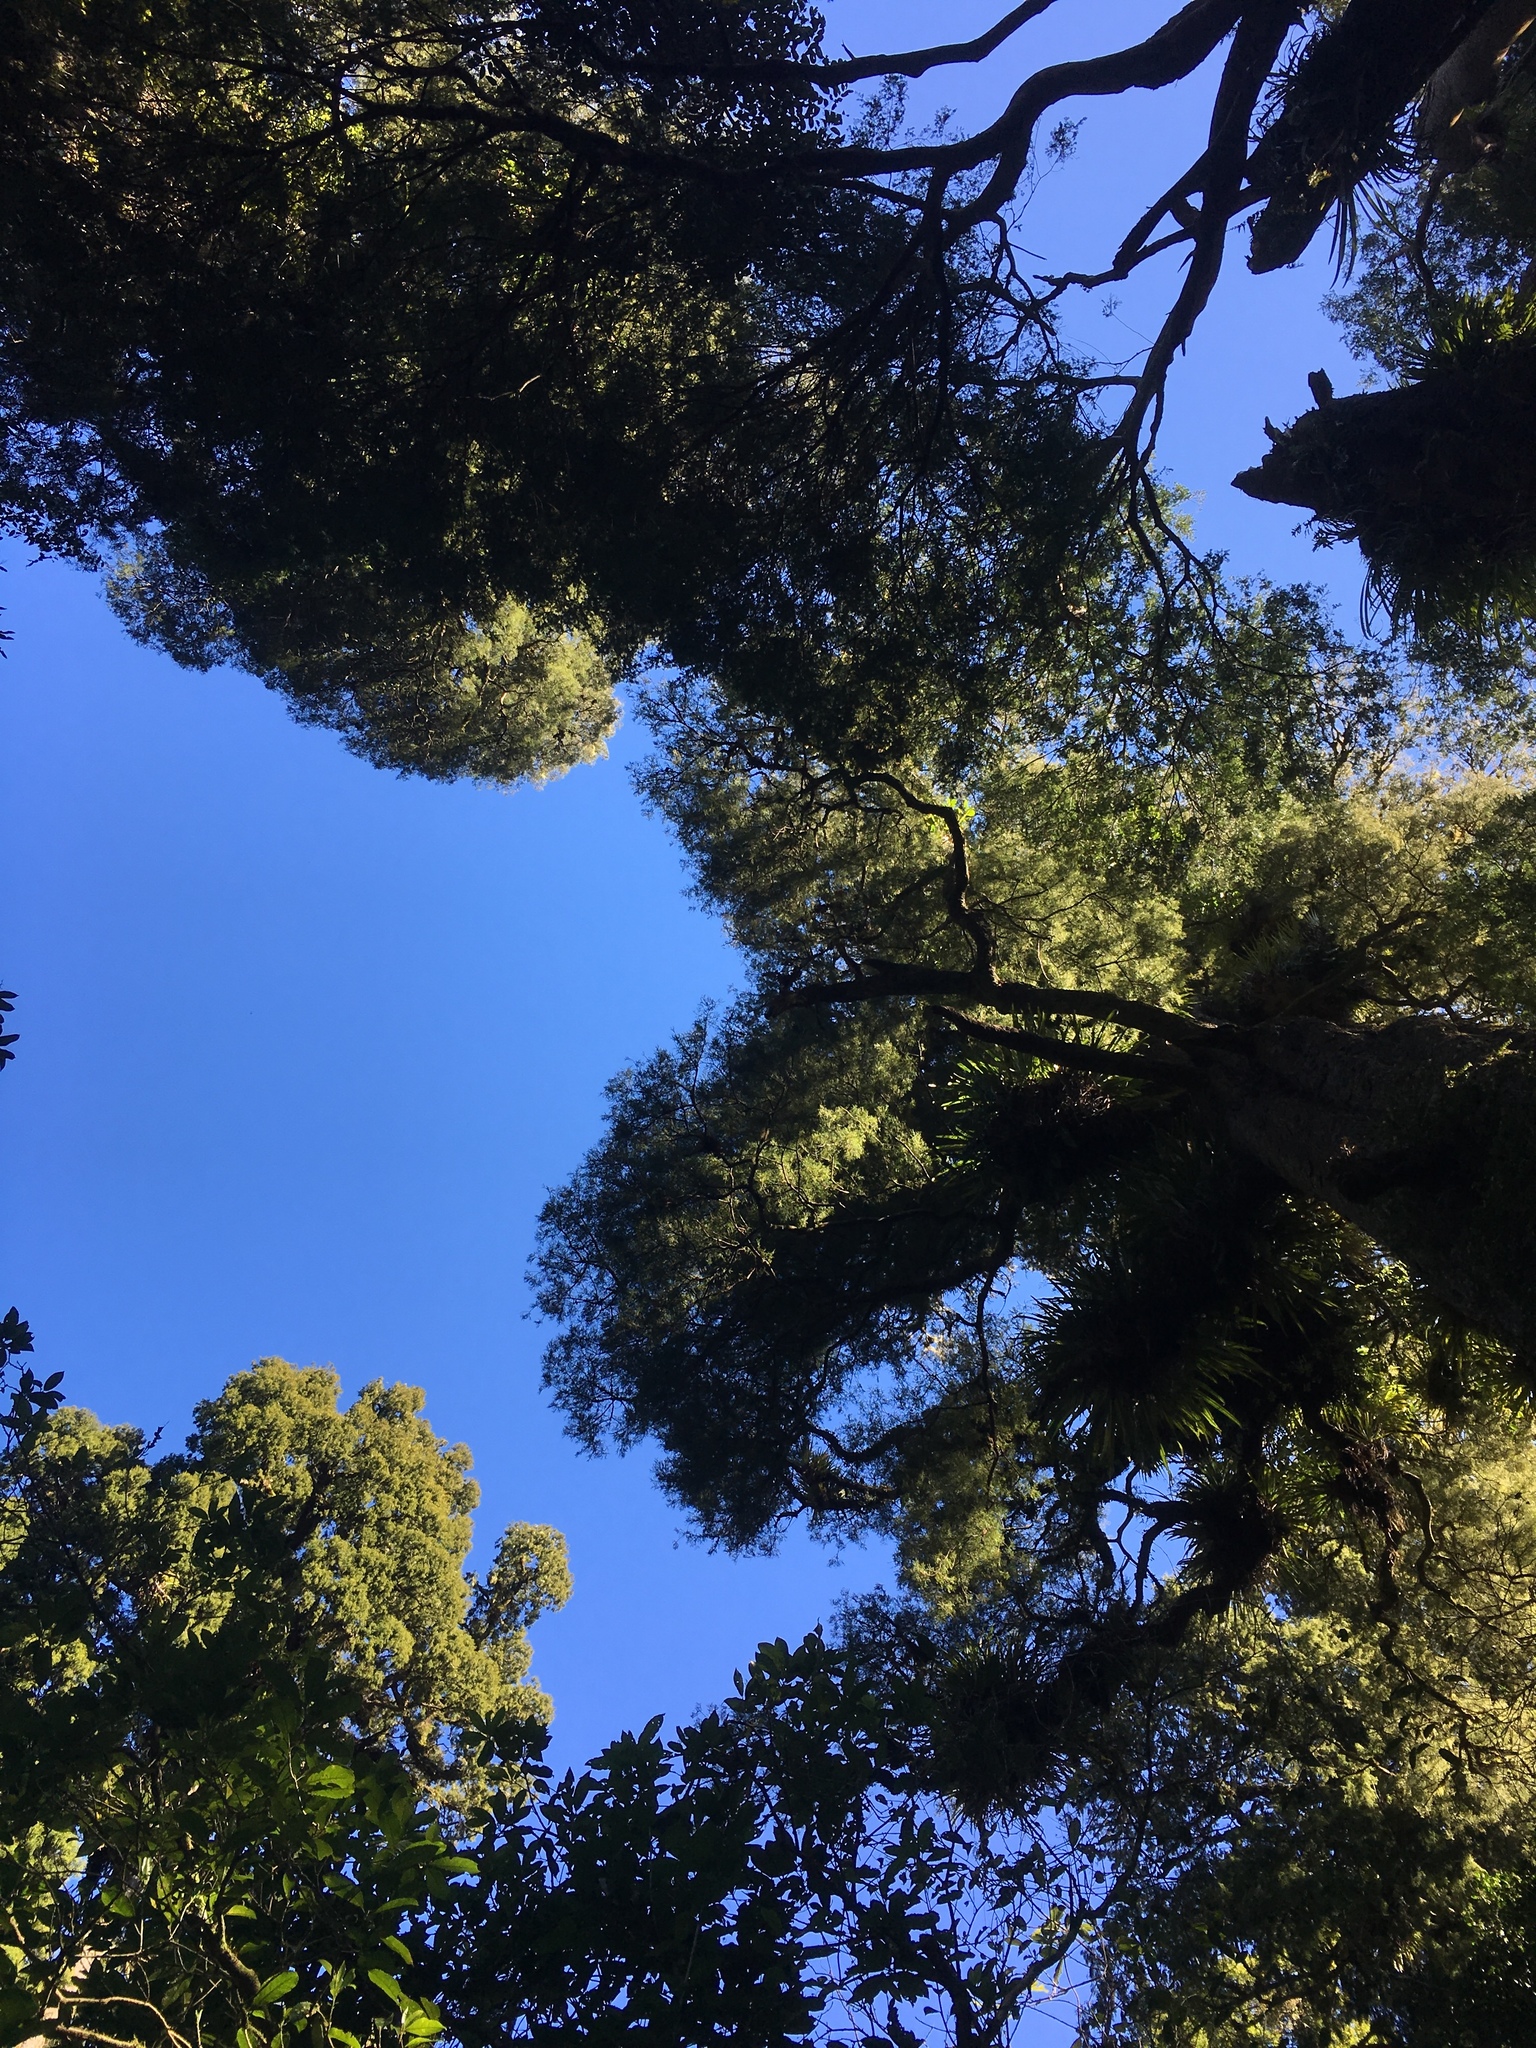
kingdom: Plantae
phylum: Tracheophyta
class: Pinopsida
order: Pinales
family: Podocarpaceae
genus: Prumnopitys
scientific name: Prumnopitys taxifolia
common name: Matai
